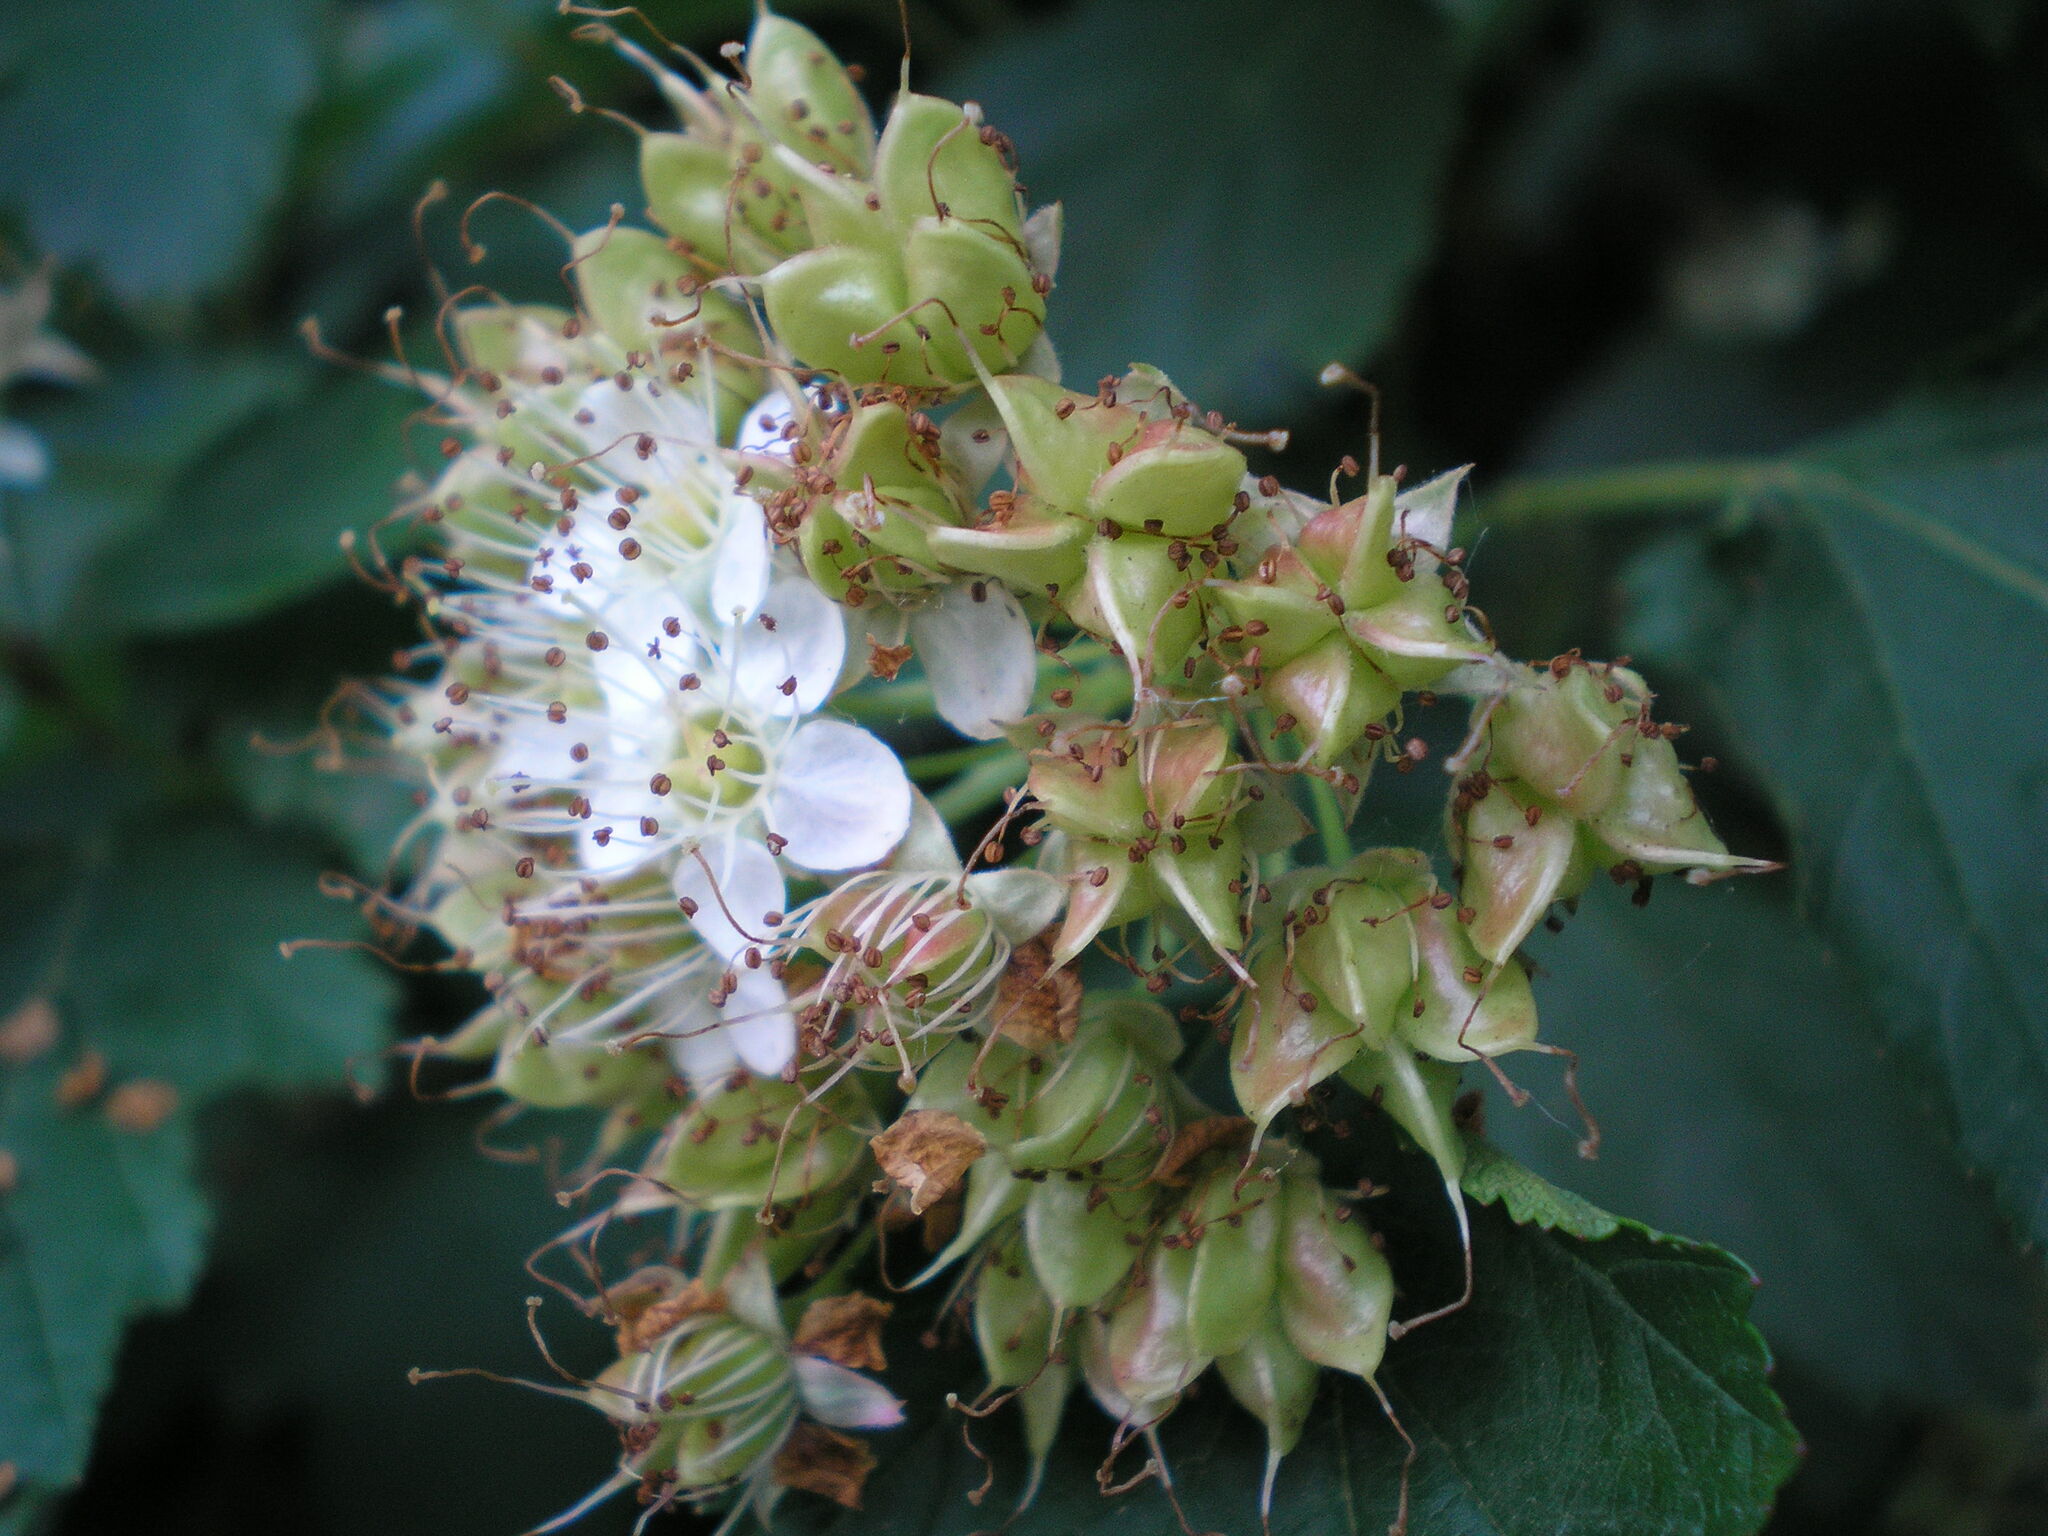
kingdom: Plantae
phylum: Tracheophyta
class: Magnoliopsida
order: Rosales
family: Rosaceae
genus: Physocarpus
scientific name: Physocarpus opulifolius
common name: Ninebark
